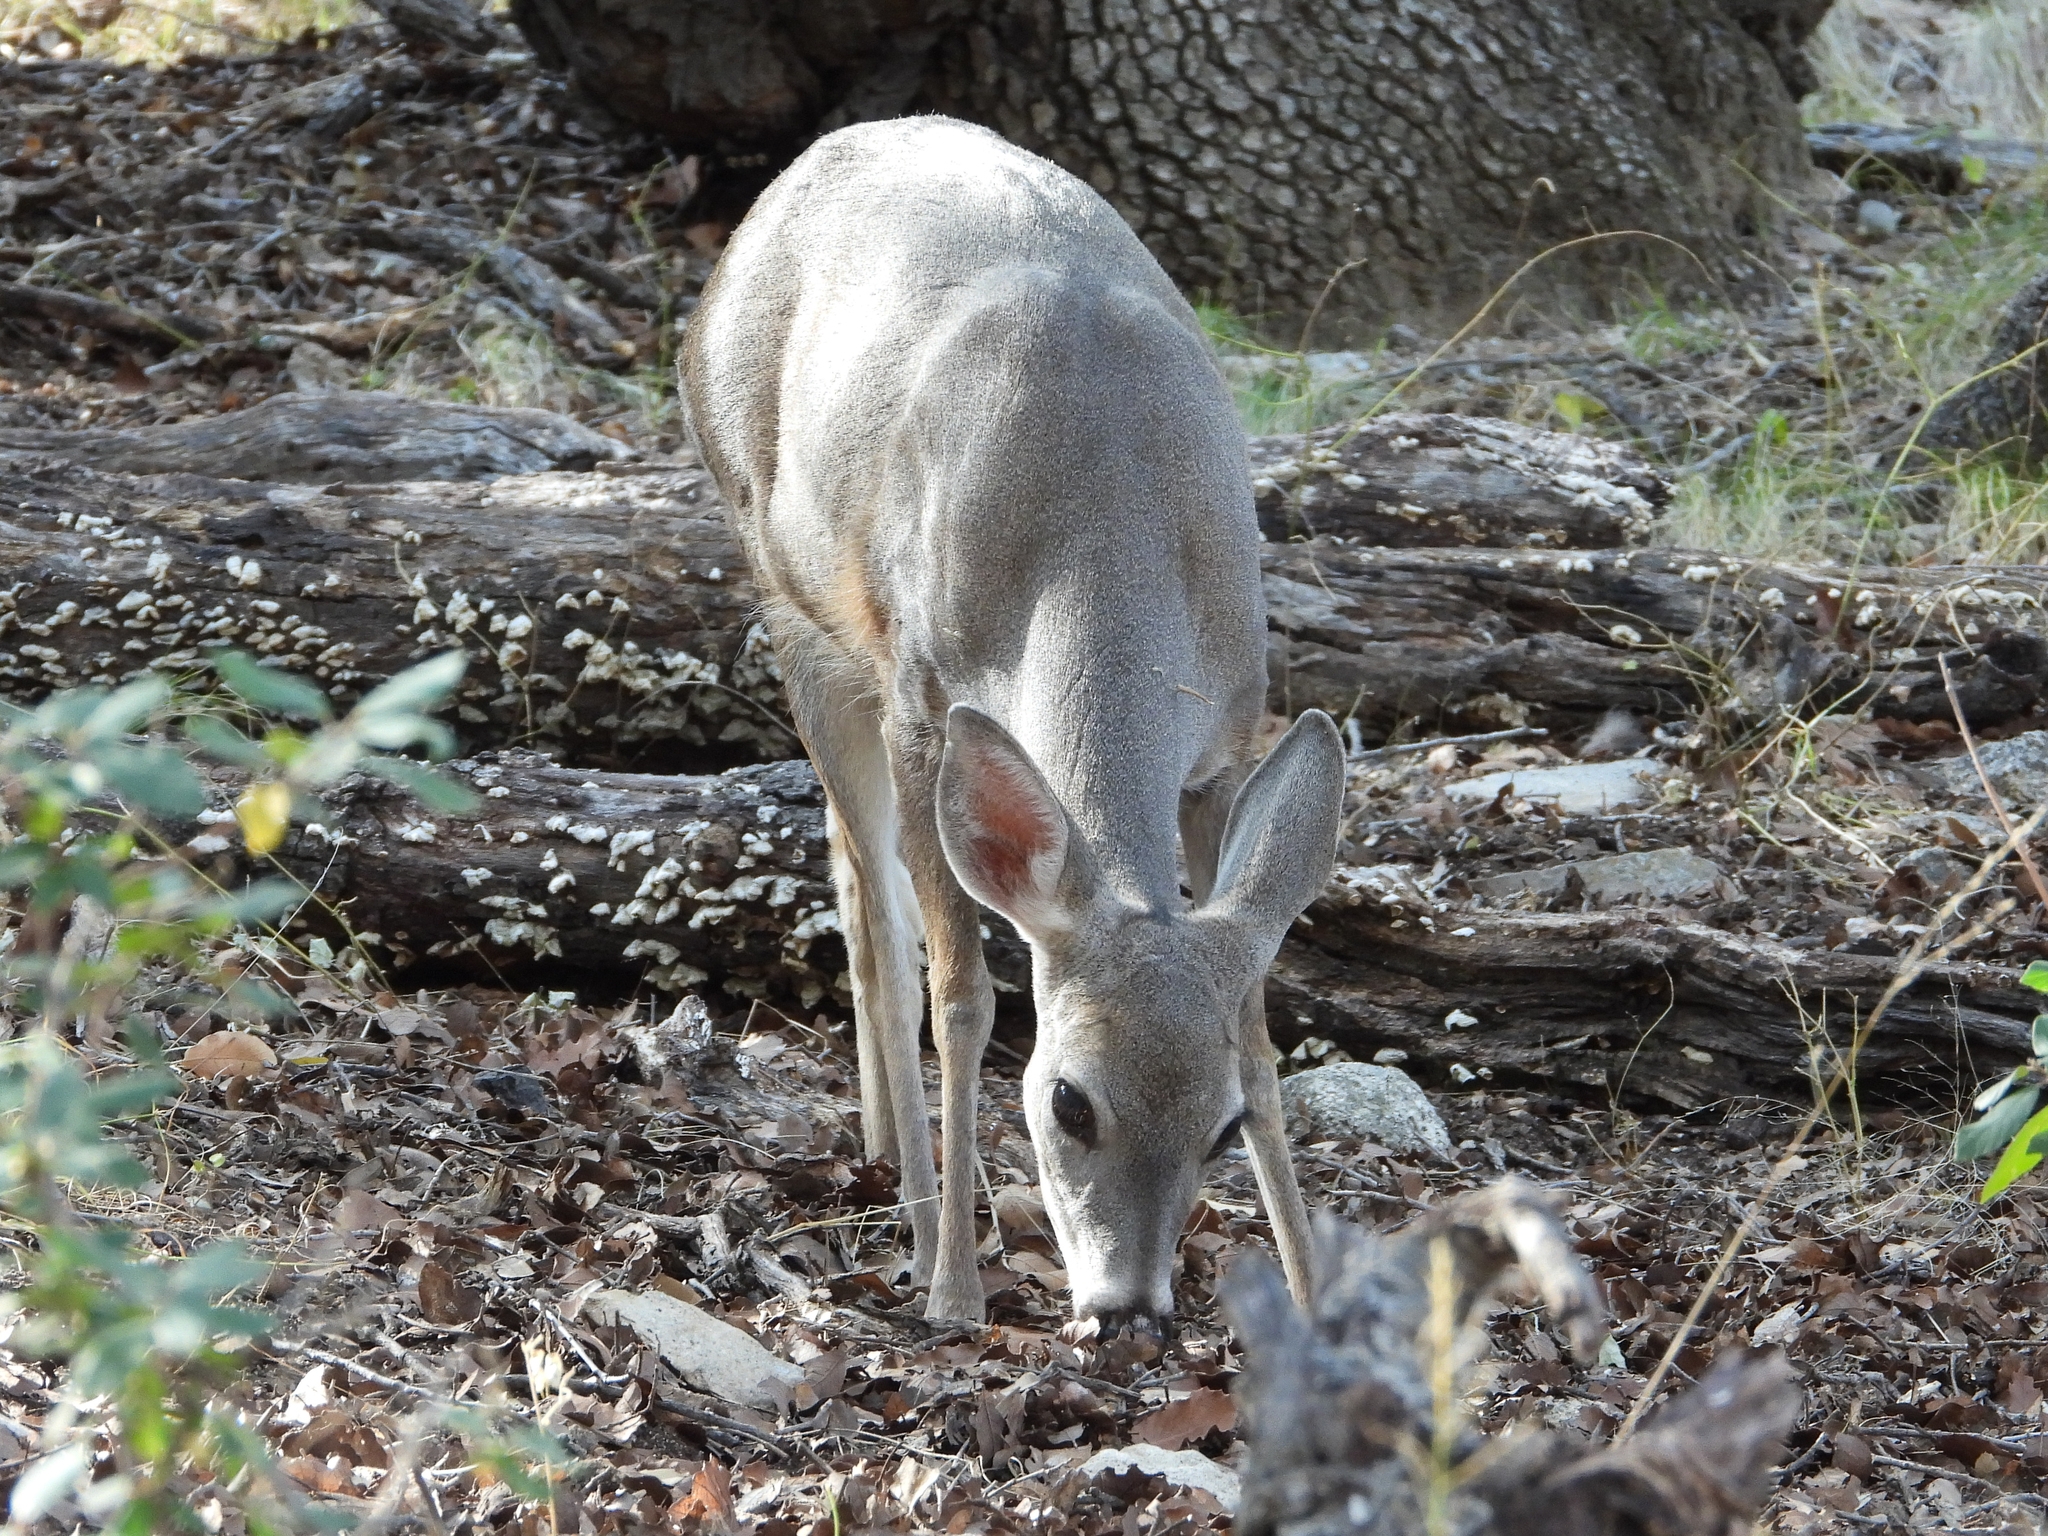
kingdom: Animalia
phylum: Chordata
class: Mammalia
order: Artiodactyla
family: Cervidae
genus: Odocoileus
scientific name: Odocoileus virginianus
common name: White-tailed deer
